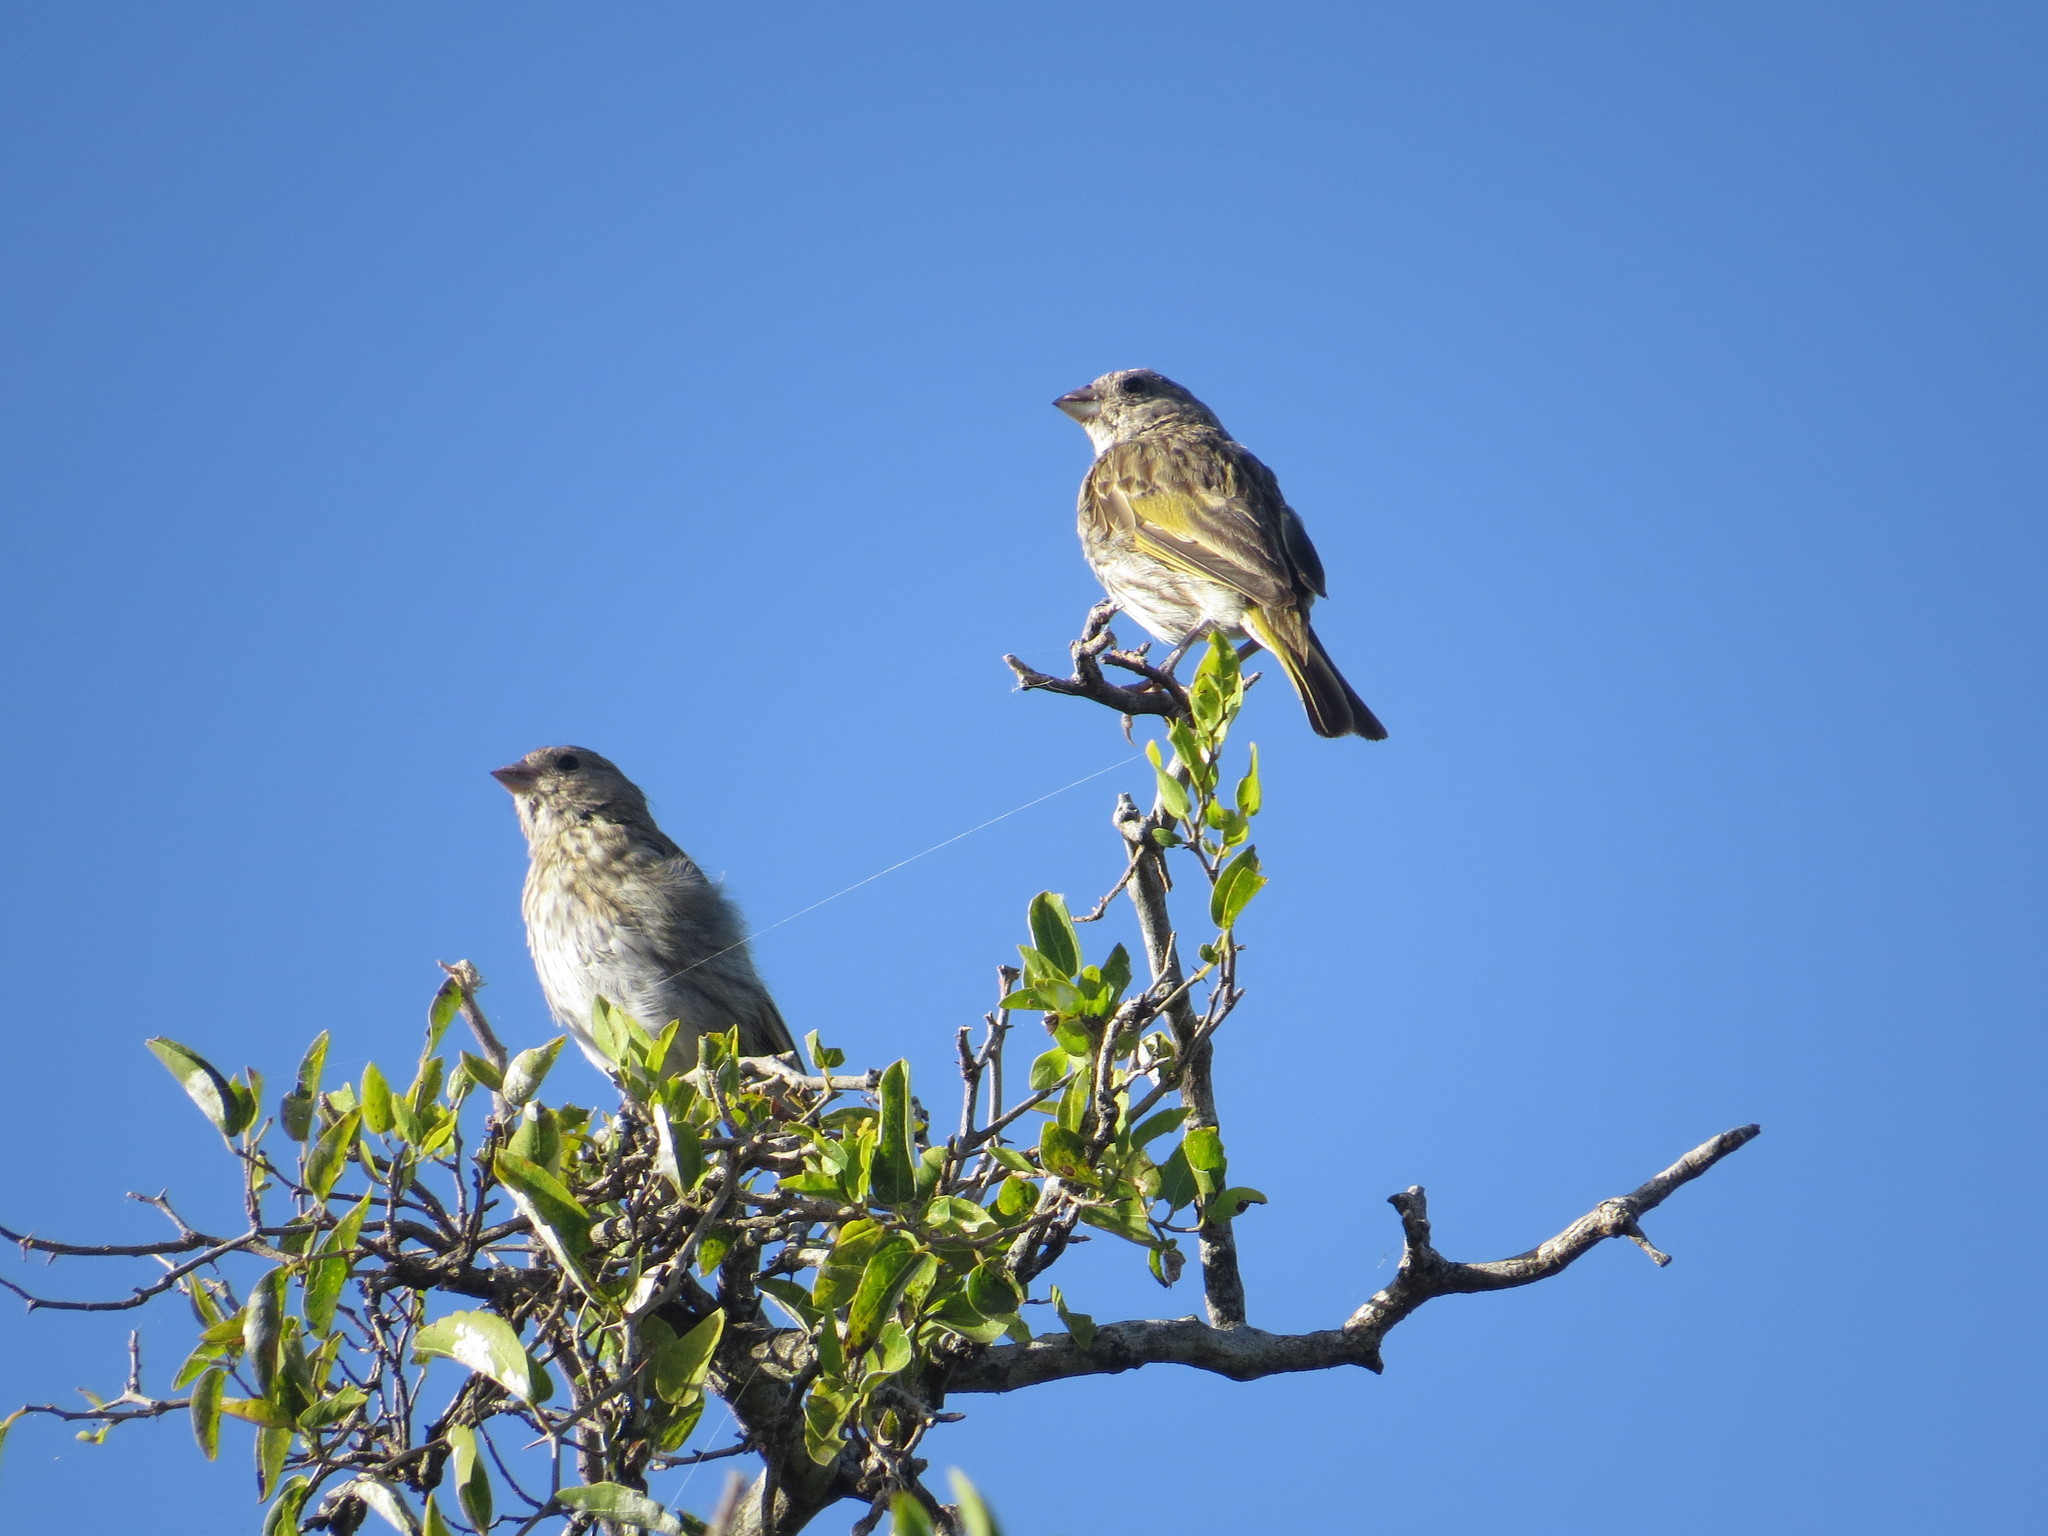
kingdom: Animalia
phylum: Chordata
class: Aves
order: Passeriformes
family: Thraupidae
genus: Sicalis
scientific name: Sicalis flaveola
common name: Saffron finch
